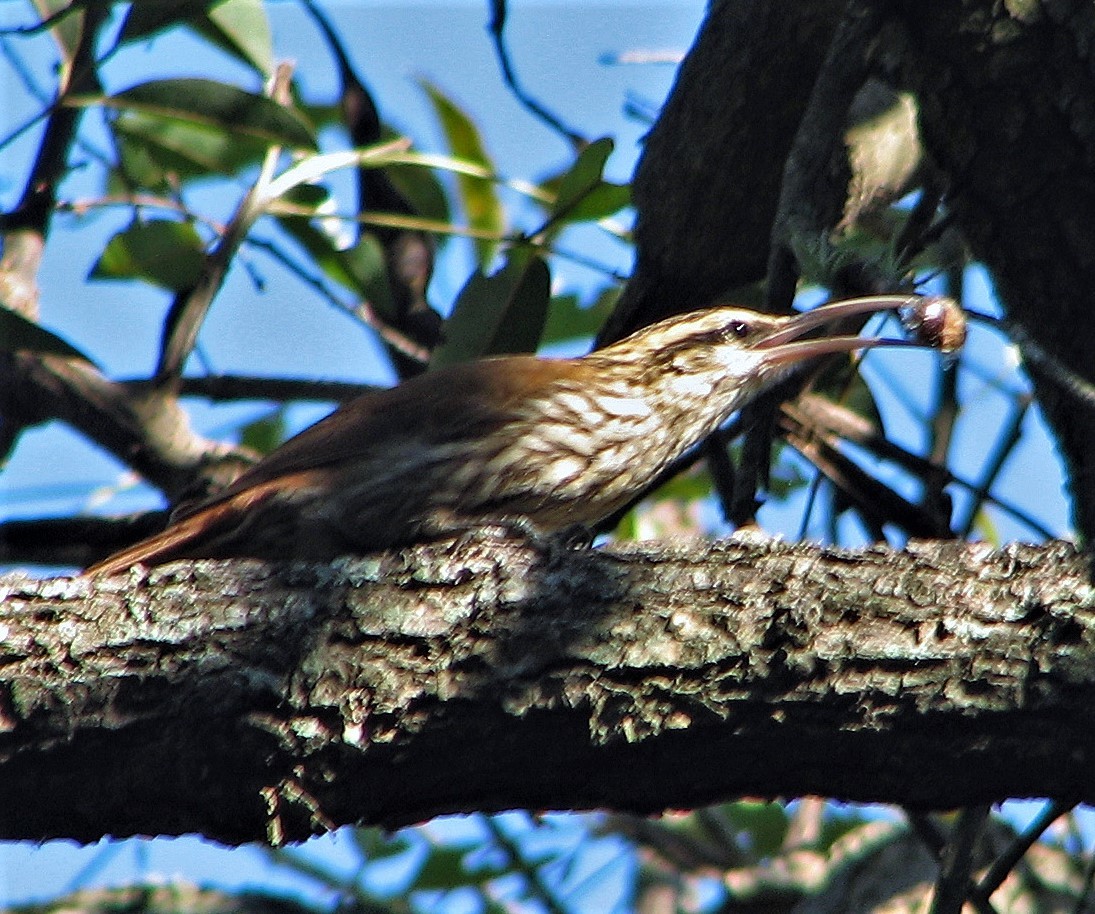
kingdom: Animalia
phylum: Chordata
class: Aves
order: Passeriformes
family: Furnariidae
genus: Lepidocolaptes
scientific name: Lepidocolaptes angustirostris
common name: Narrow-billed woodcreeper
